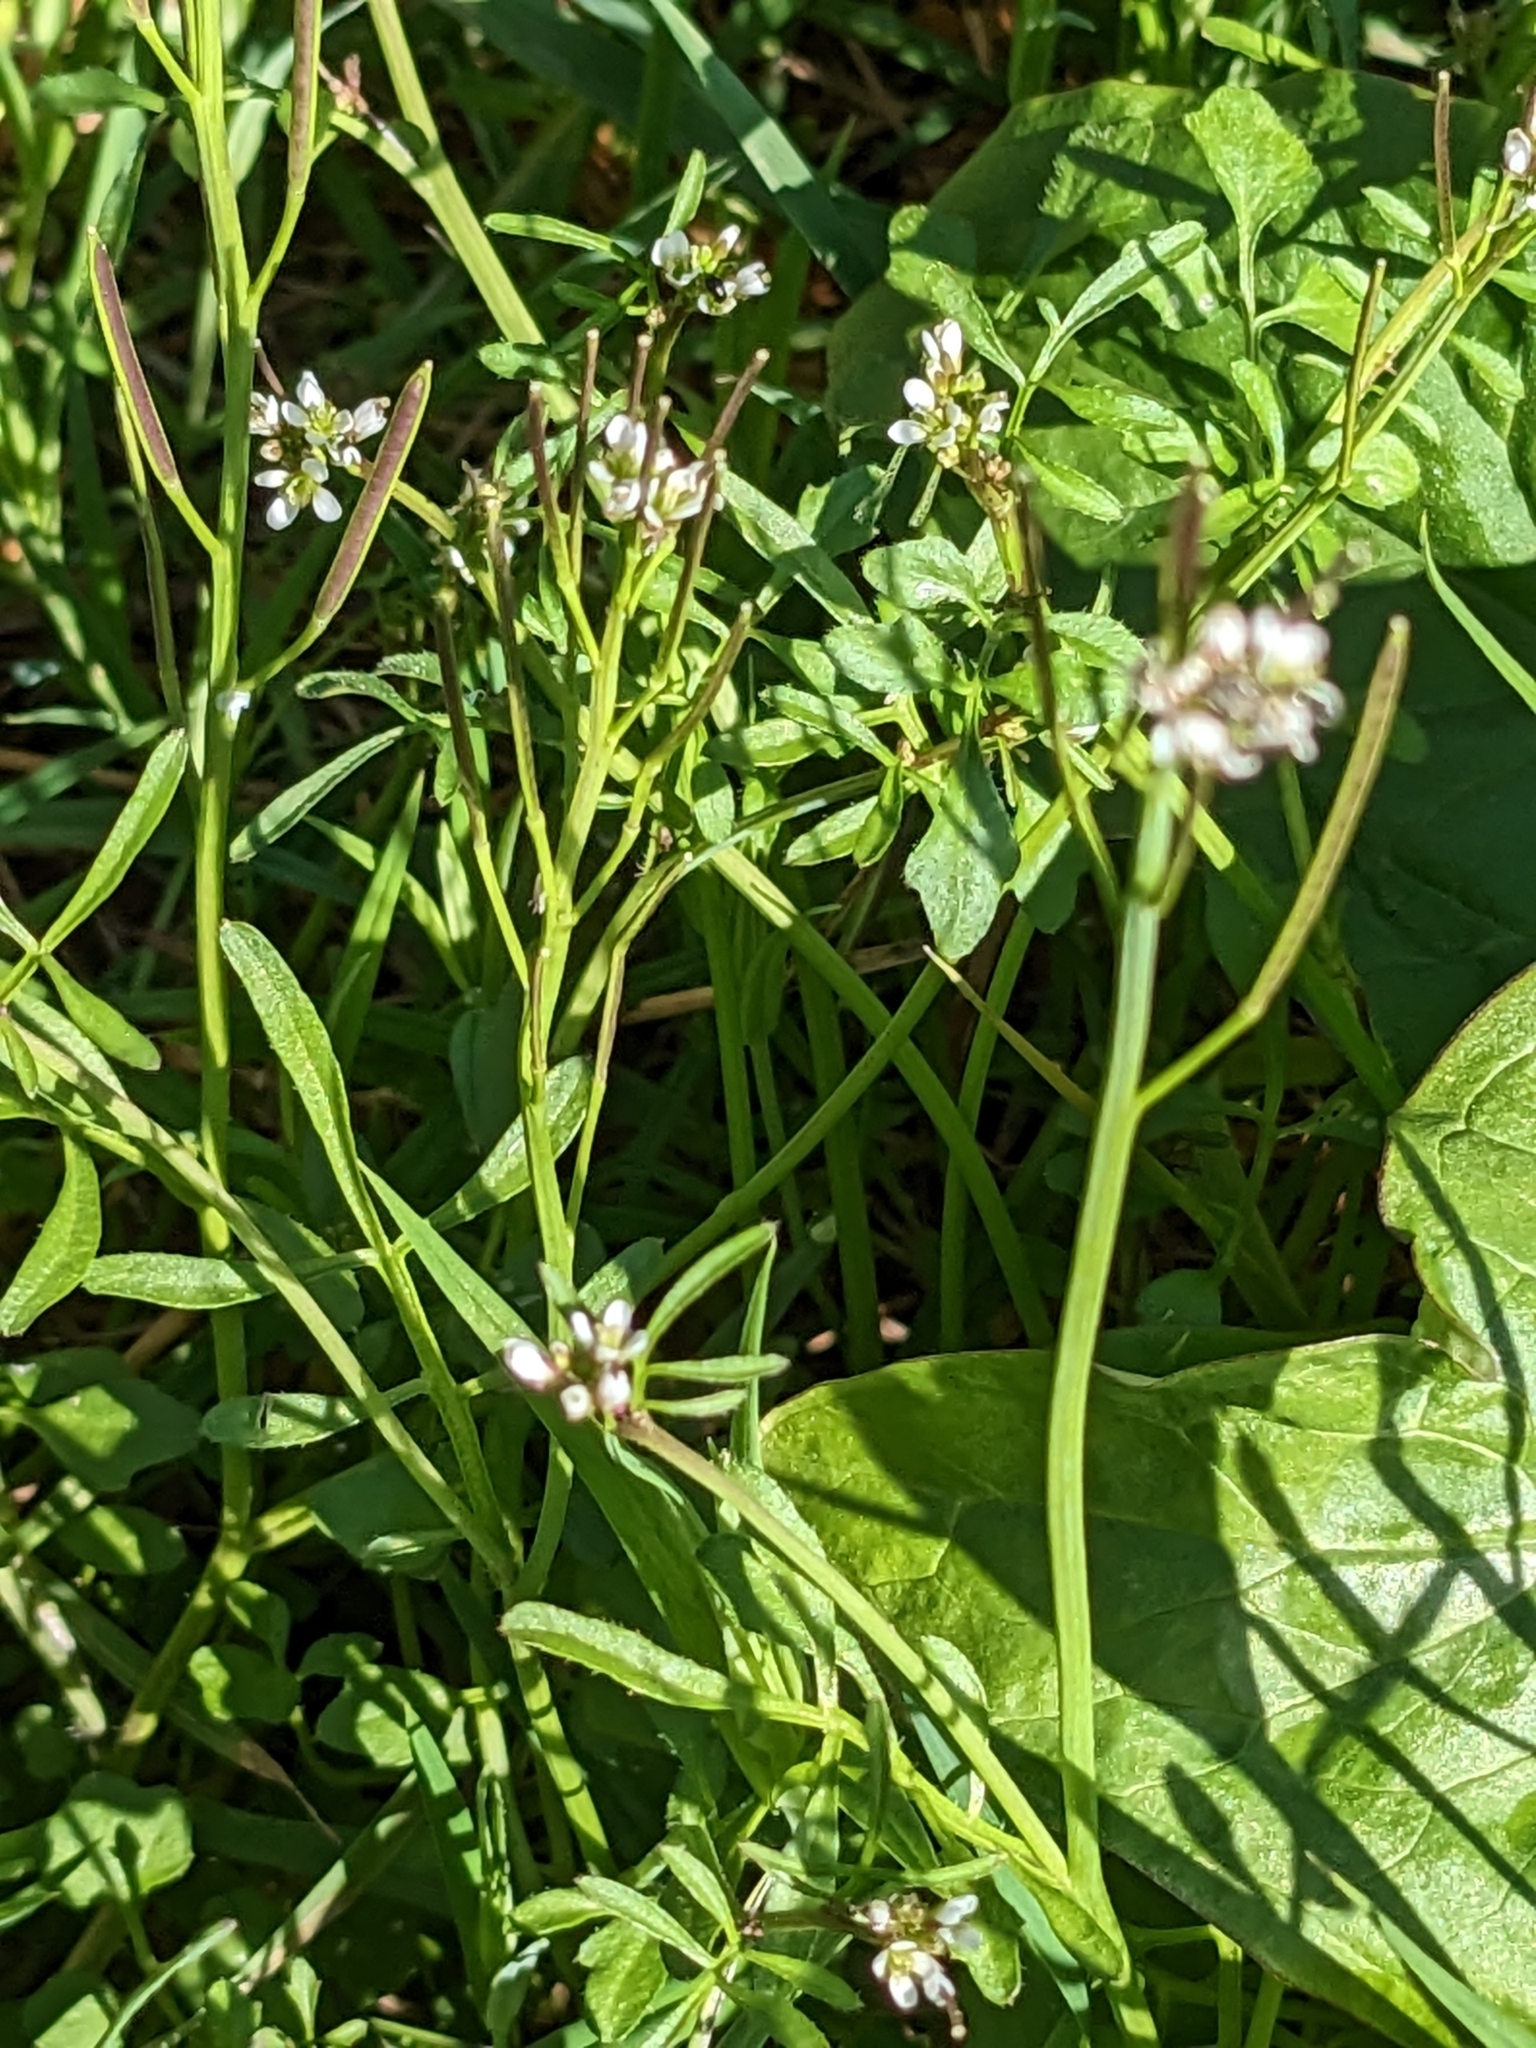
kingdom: Plantae
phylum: Tracheophyta
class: Magnoliopsida
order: Brassicales
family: Brassicaceae
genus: Cardamine
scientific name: Cardamine hirsuta
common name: Hairy bittercress
